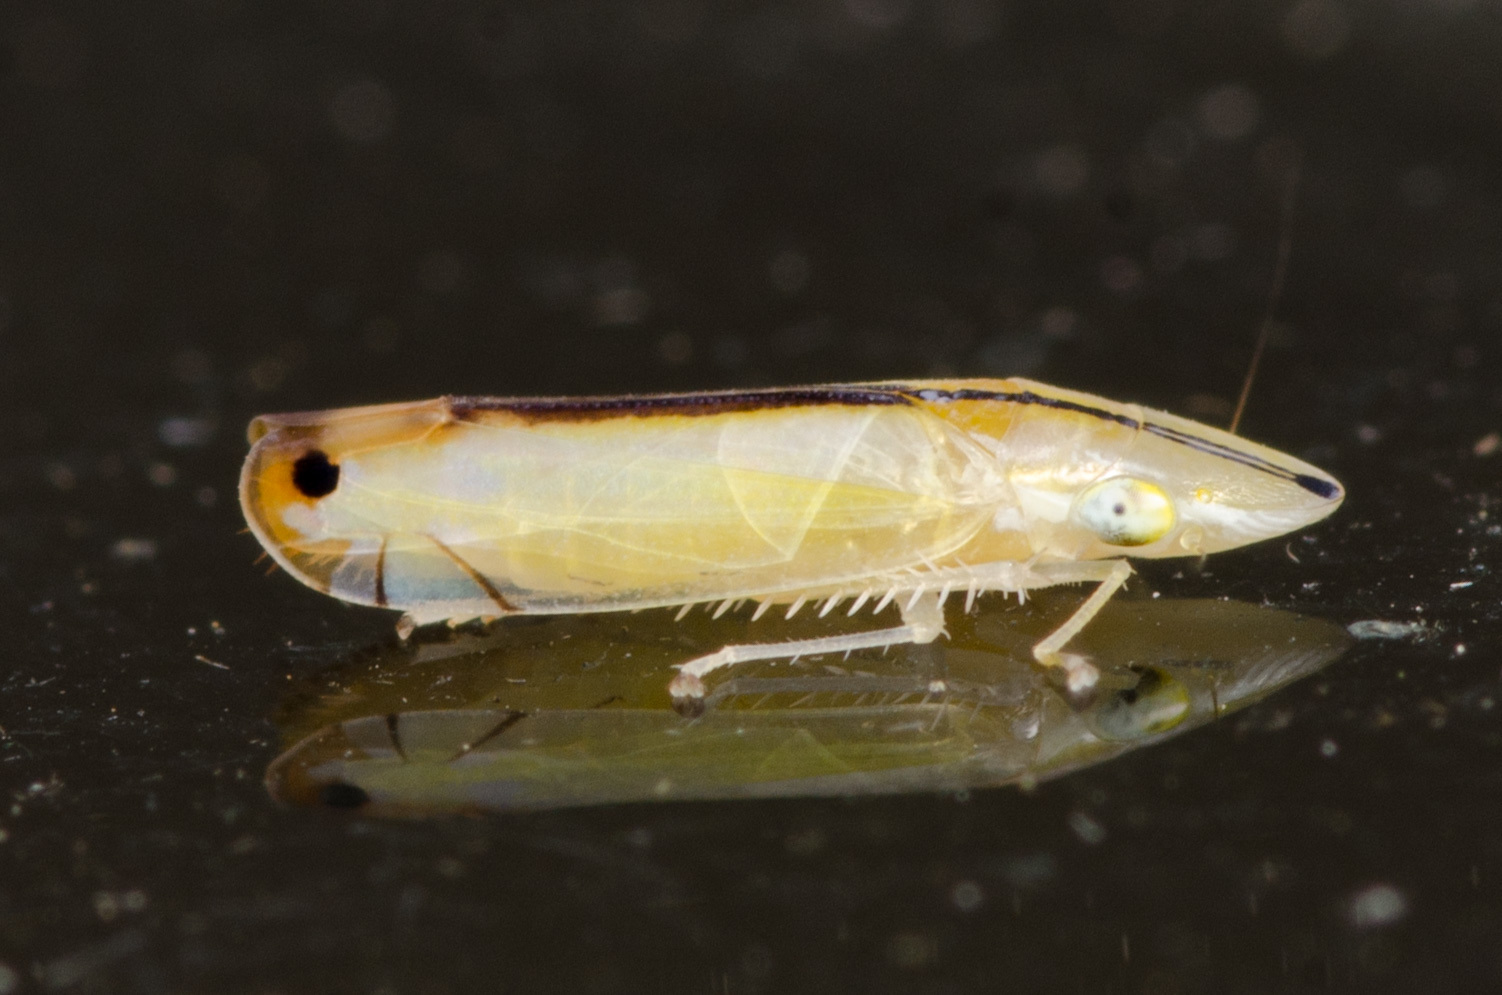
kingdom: Animalia
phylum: Arthropoda
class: Insecta
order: Hemiptera
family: Cicadellidae
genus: Sophonia
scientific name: Sophonia orientalis
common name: Two-spotted leafhopper
